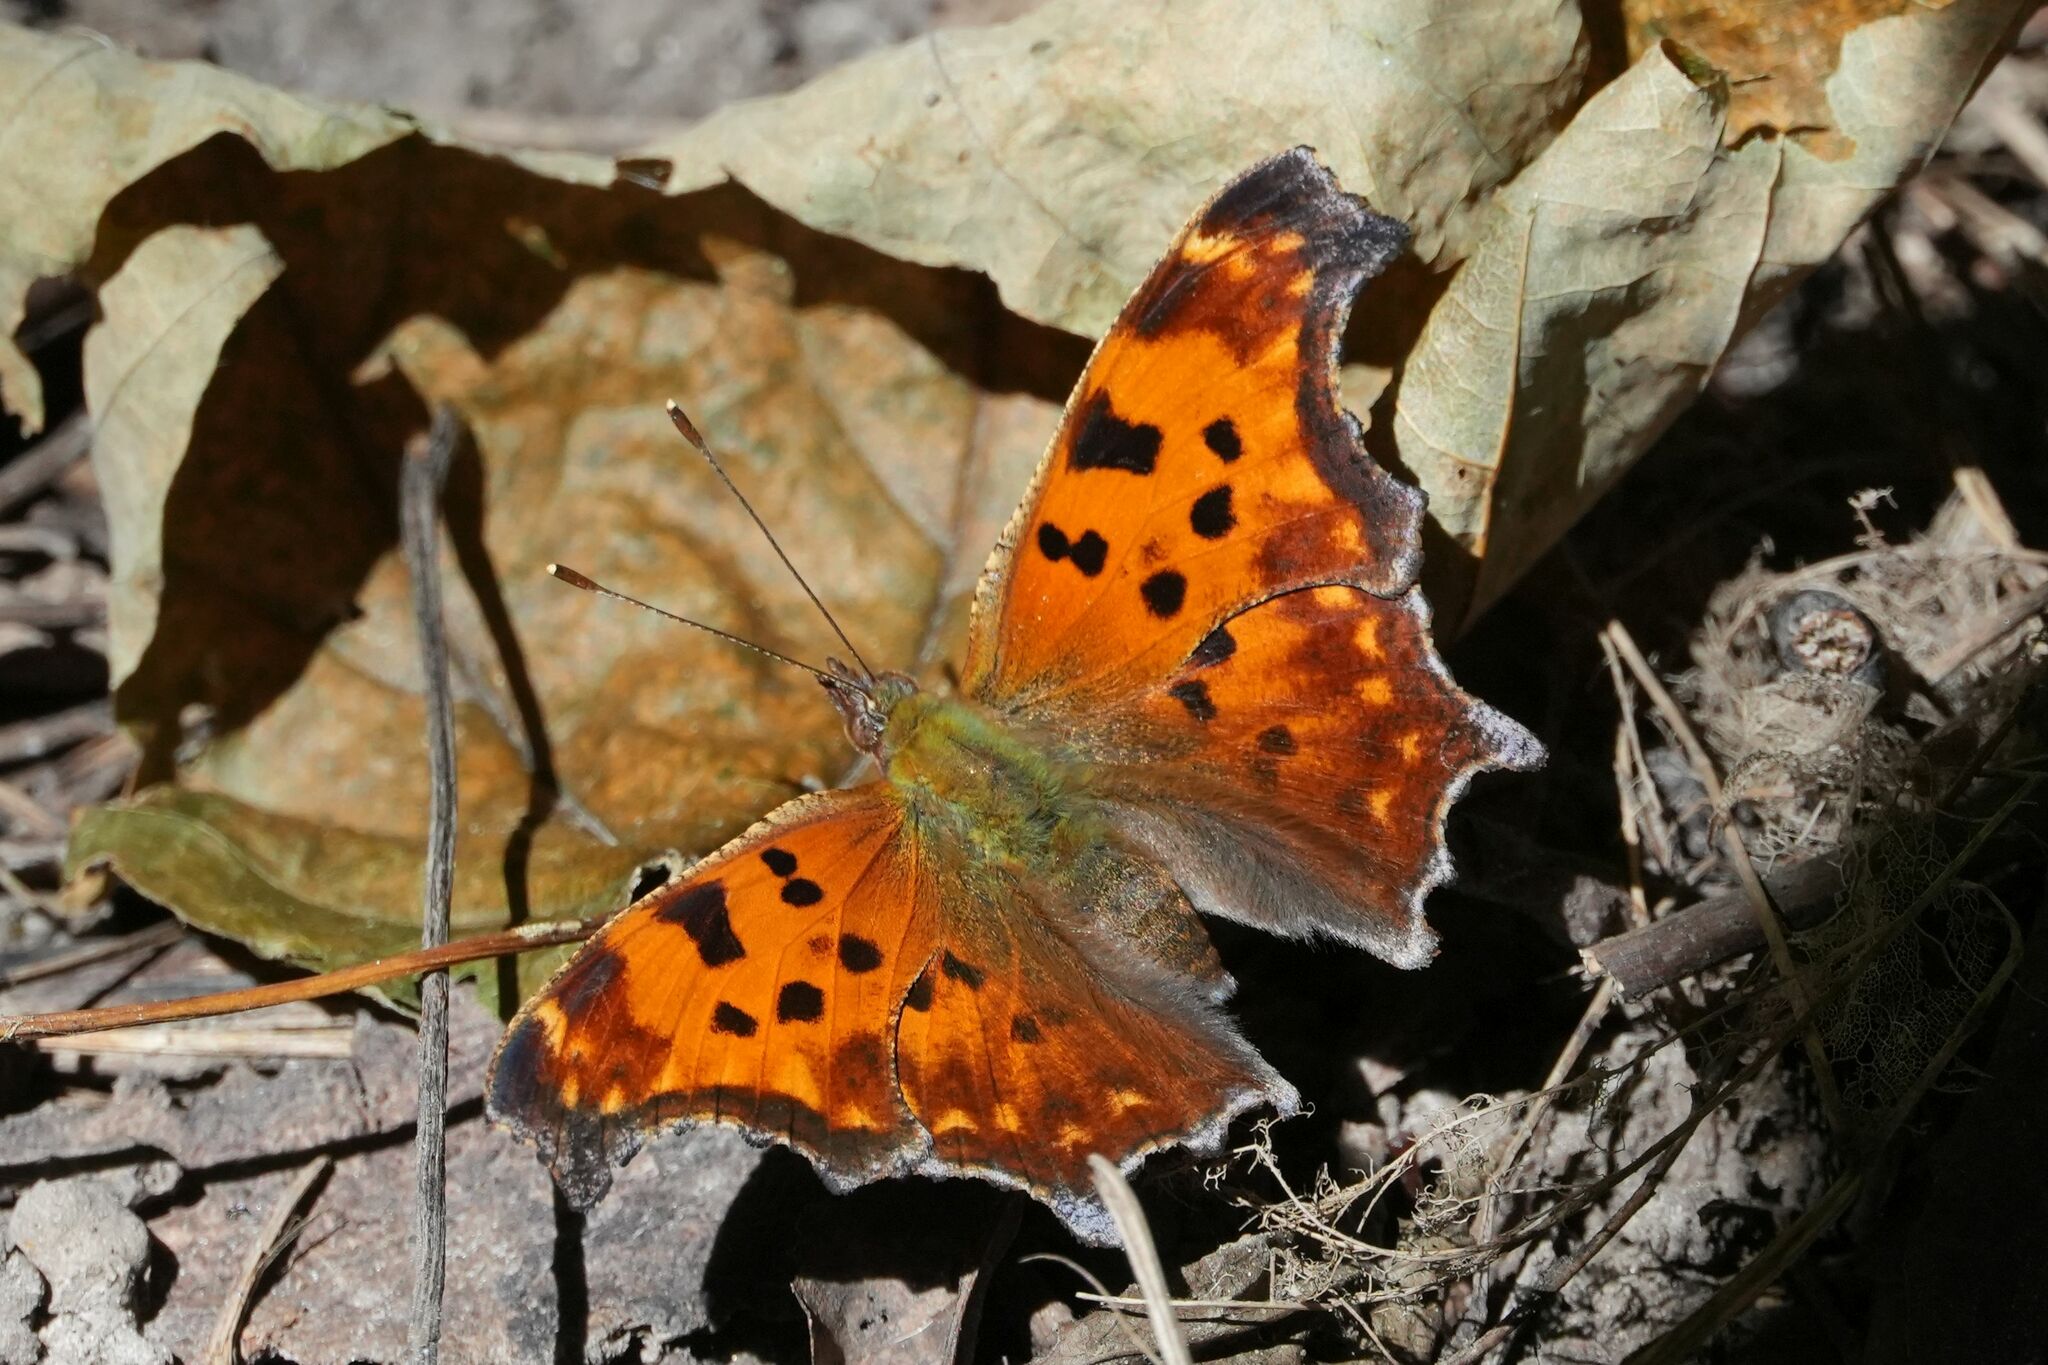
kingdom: Animalia
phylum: Arthropoda
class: Insecta
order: Lepidoptera
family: Nymphalidae
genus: Polygonia
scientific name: Polygonia comma
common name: Eastern comma
